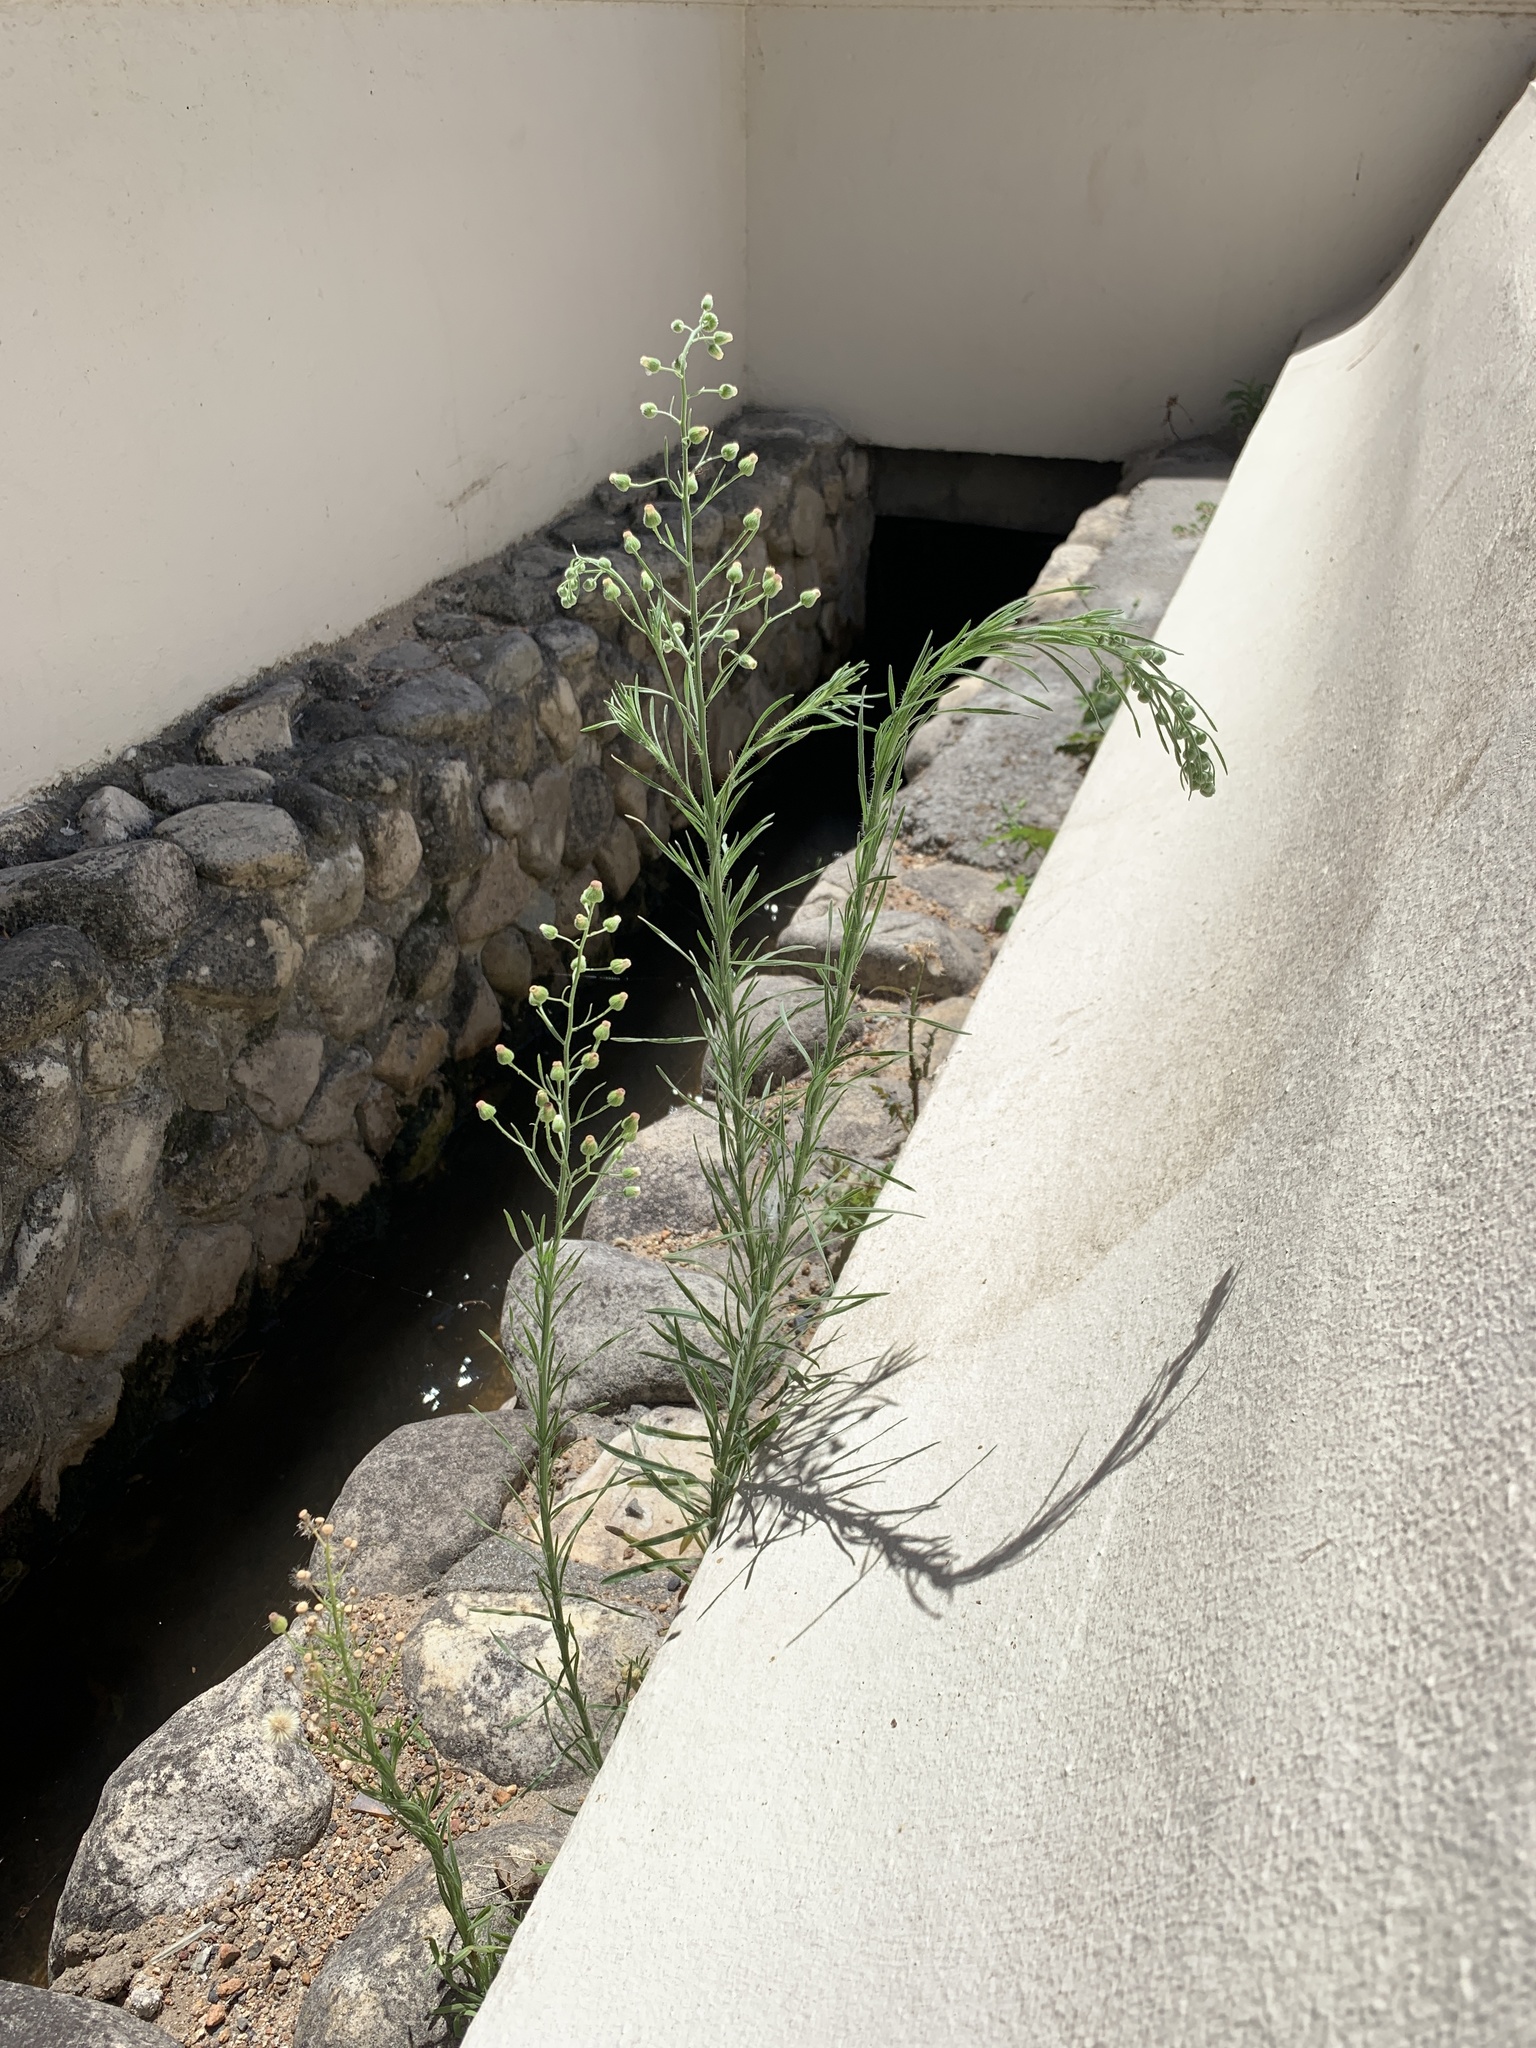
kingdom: Plantae
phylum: Tracheophyta
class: Magnoliopsida
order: Asterales
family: Asteraceae
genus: Erigeron
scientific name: Erigeron bonariensis
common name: Argentine fleabane
